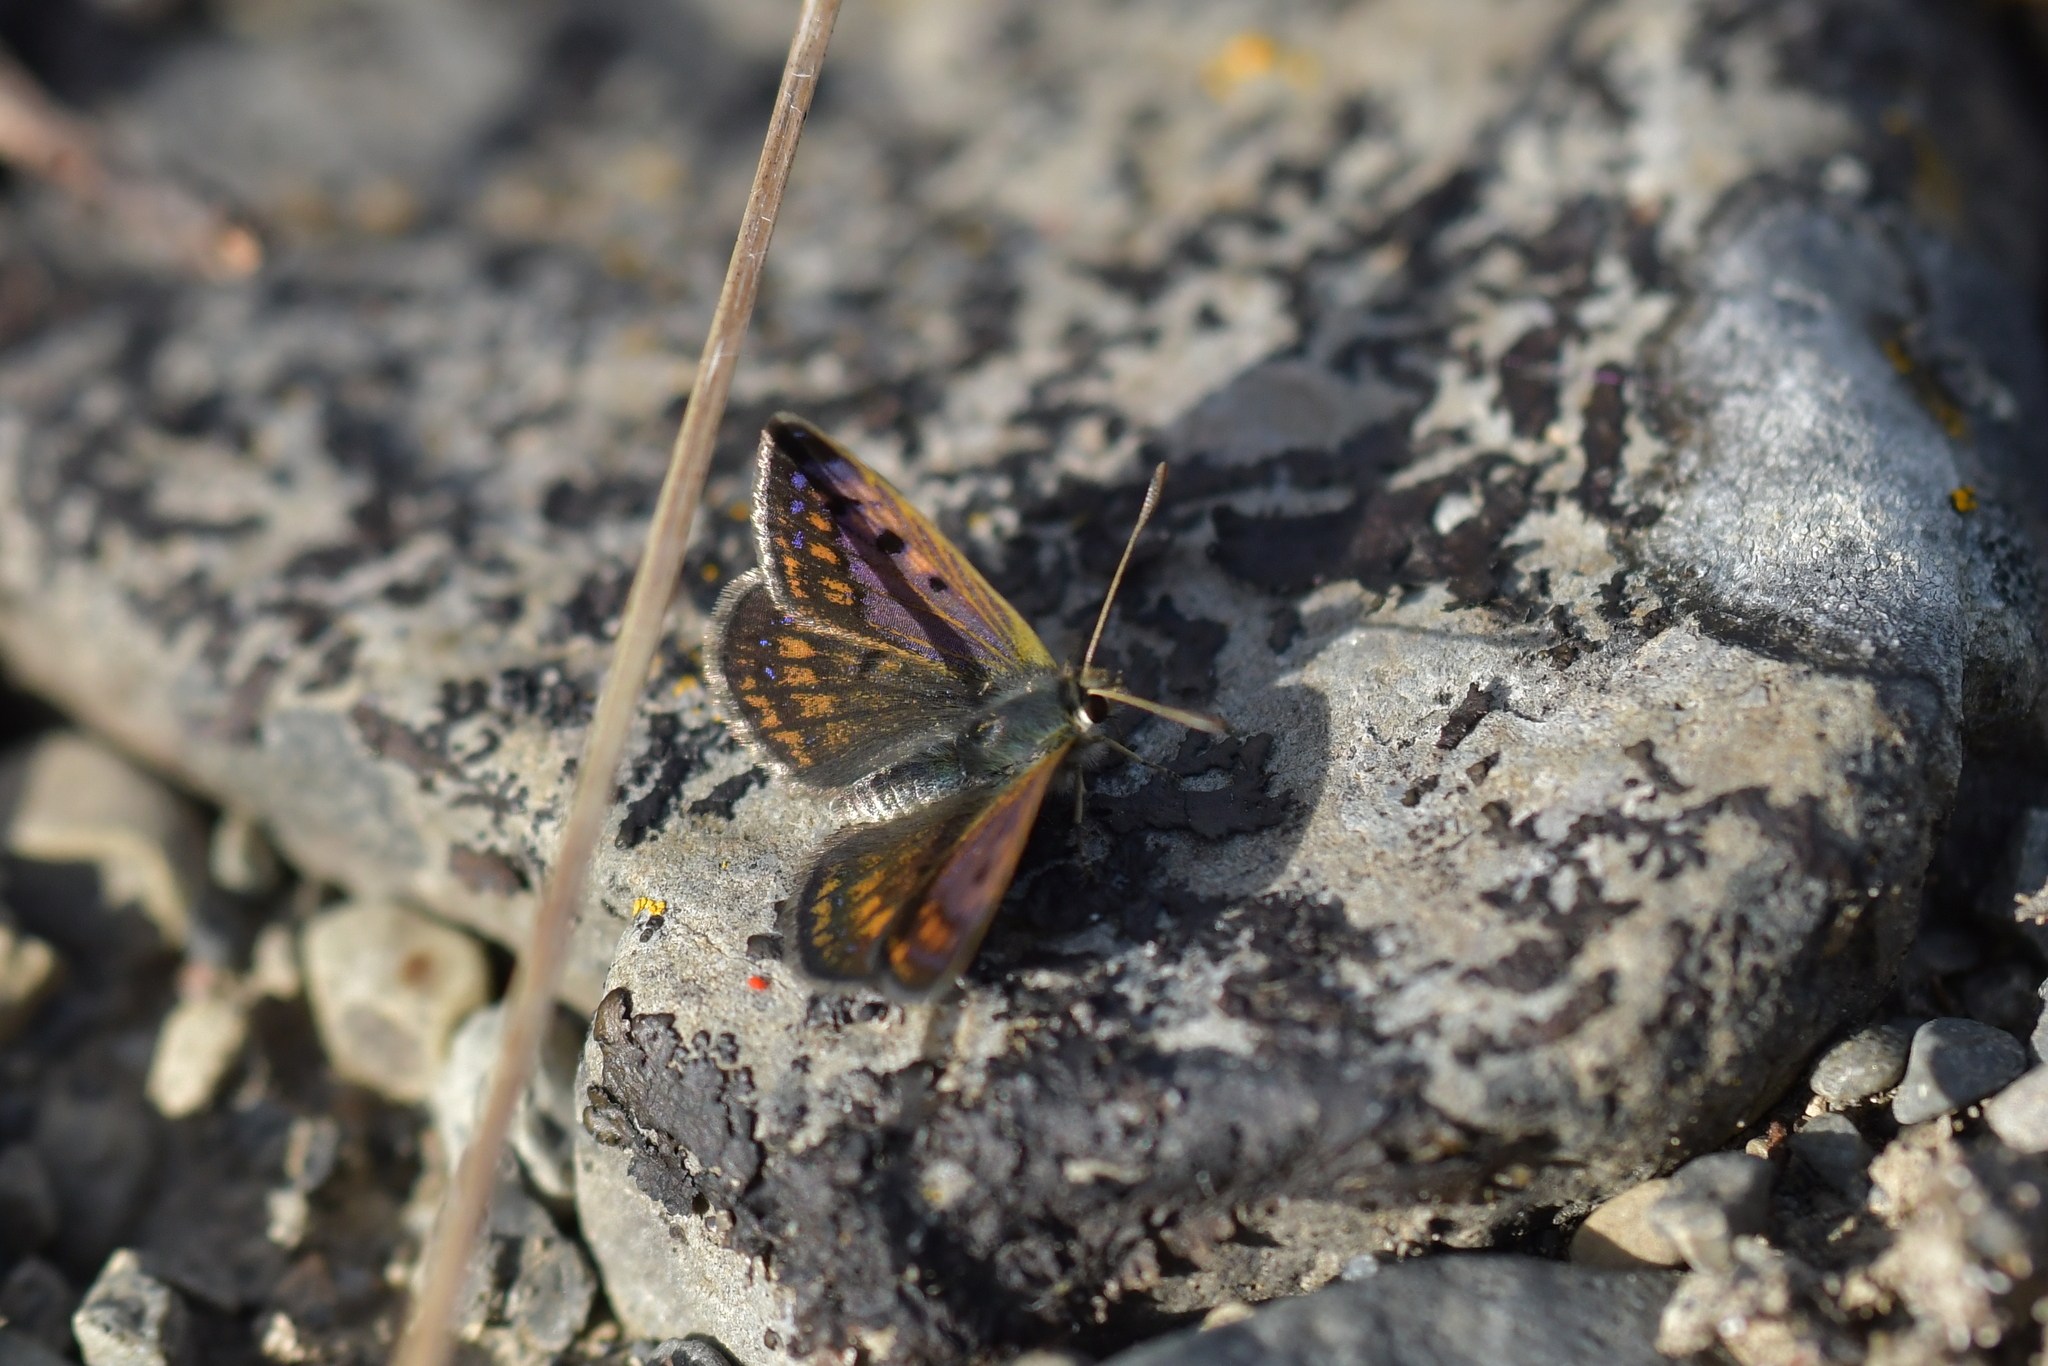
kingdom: Animalia
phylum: Arthropoda
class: Insecta
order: Lepidoptera
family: Lycaenidae
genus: Lycaena
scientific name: Lycaena tama
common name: Canterbury alpine boulder copper
